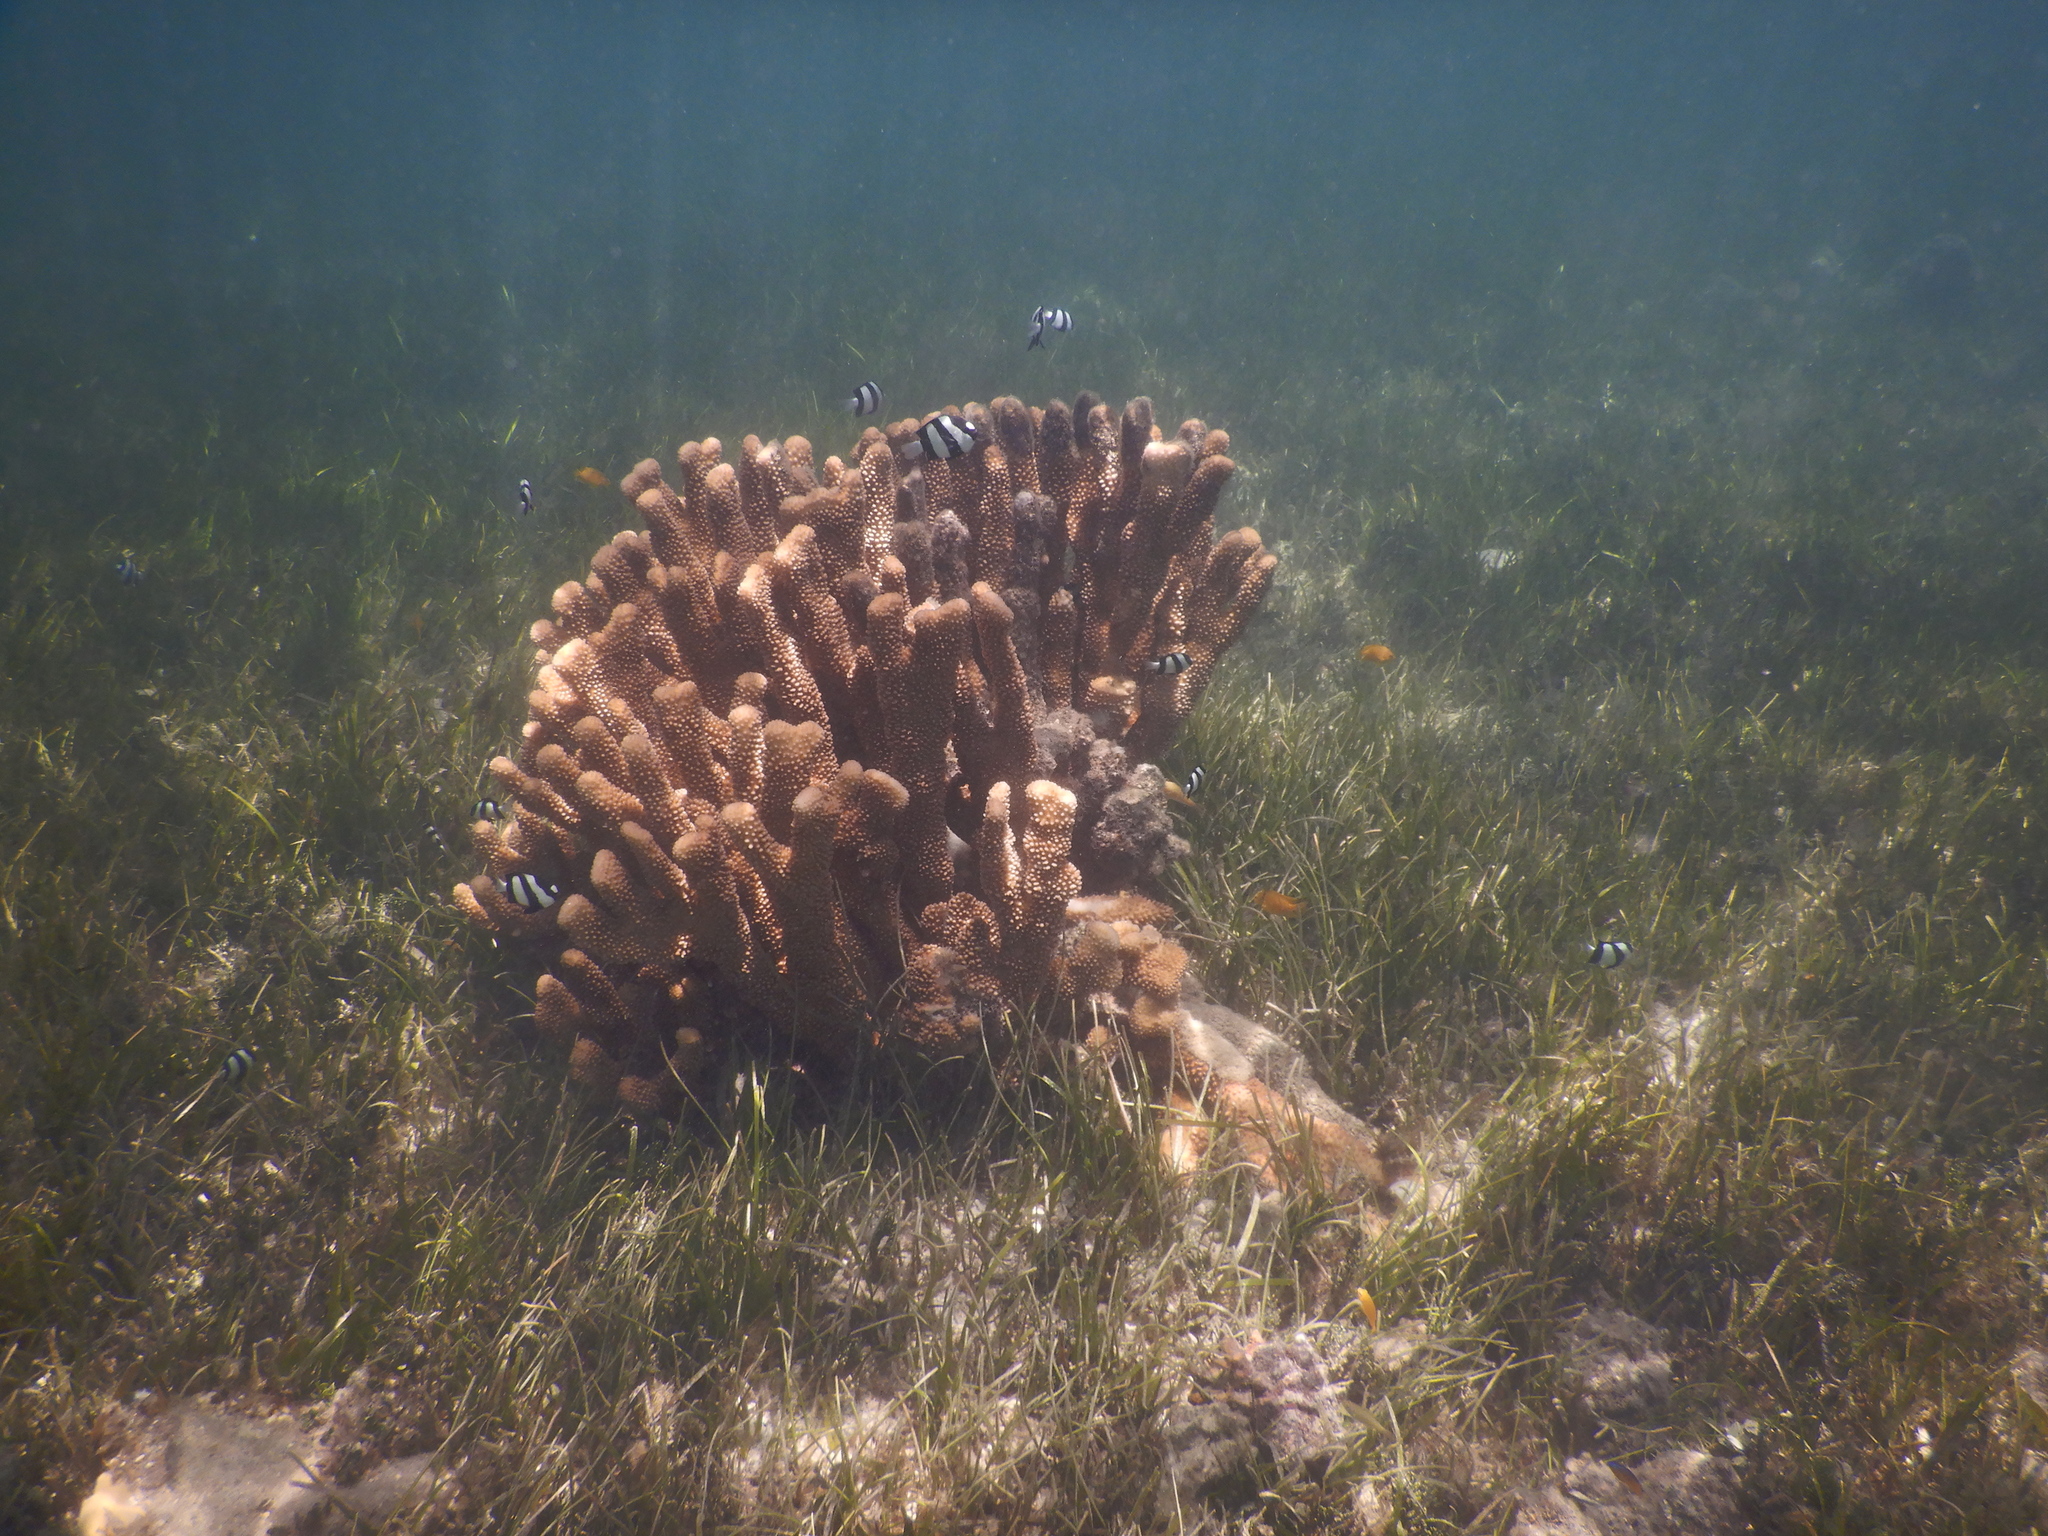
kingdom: Animalia
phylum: Cnidaria
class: Anthozoa
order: Scleractinia
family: Pocilloporidae
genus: Pocillopora
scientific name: Pocillopora grandis
